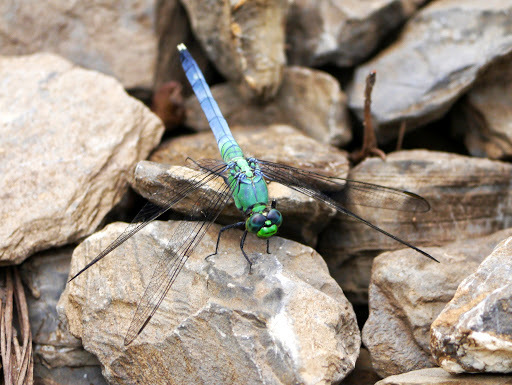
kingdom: Animalia
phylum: Arthropoda
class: Insecta
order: Odonata
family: Libellulidae
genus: Erythemis
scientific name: Erythemis simplicicollis
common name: Eastern pondhawk
